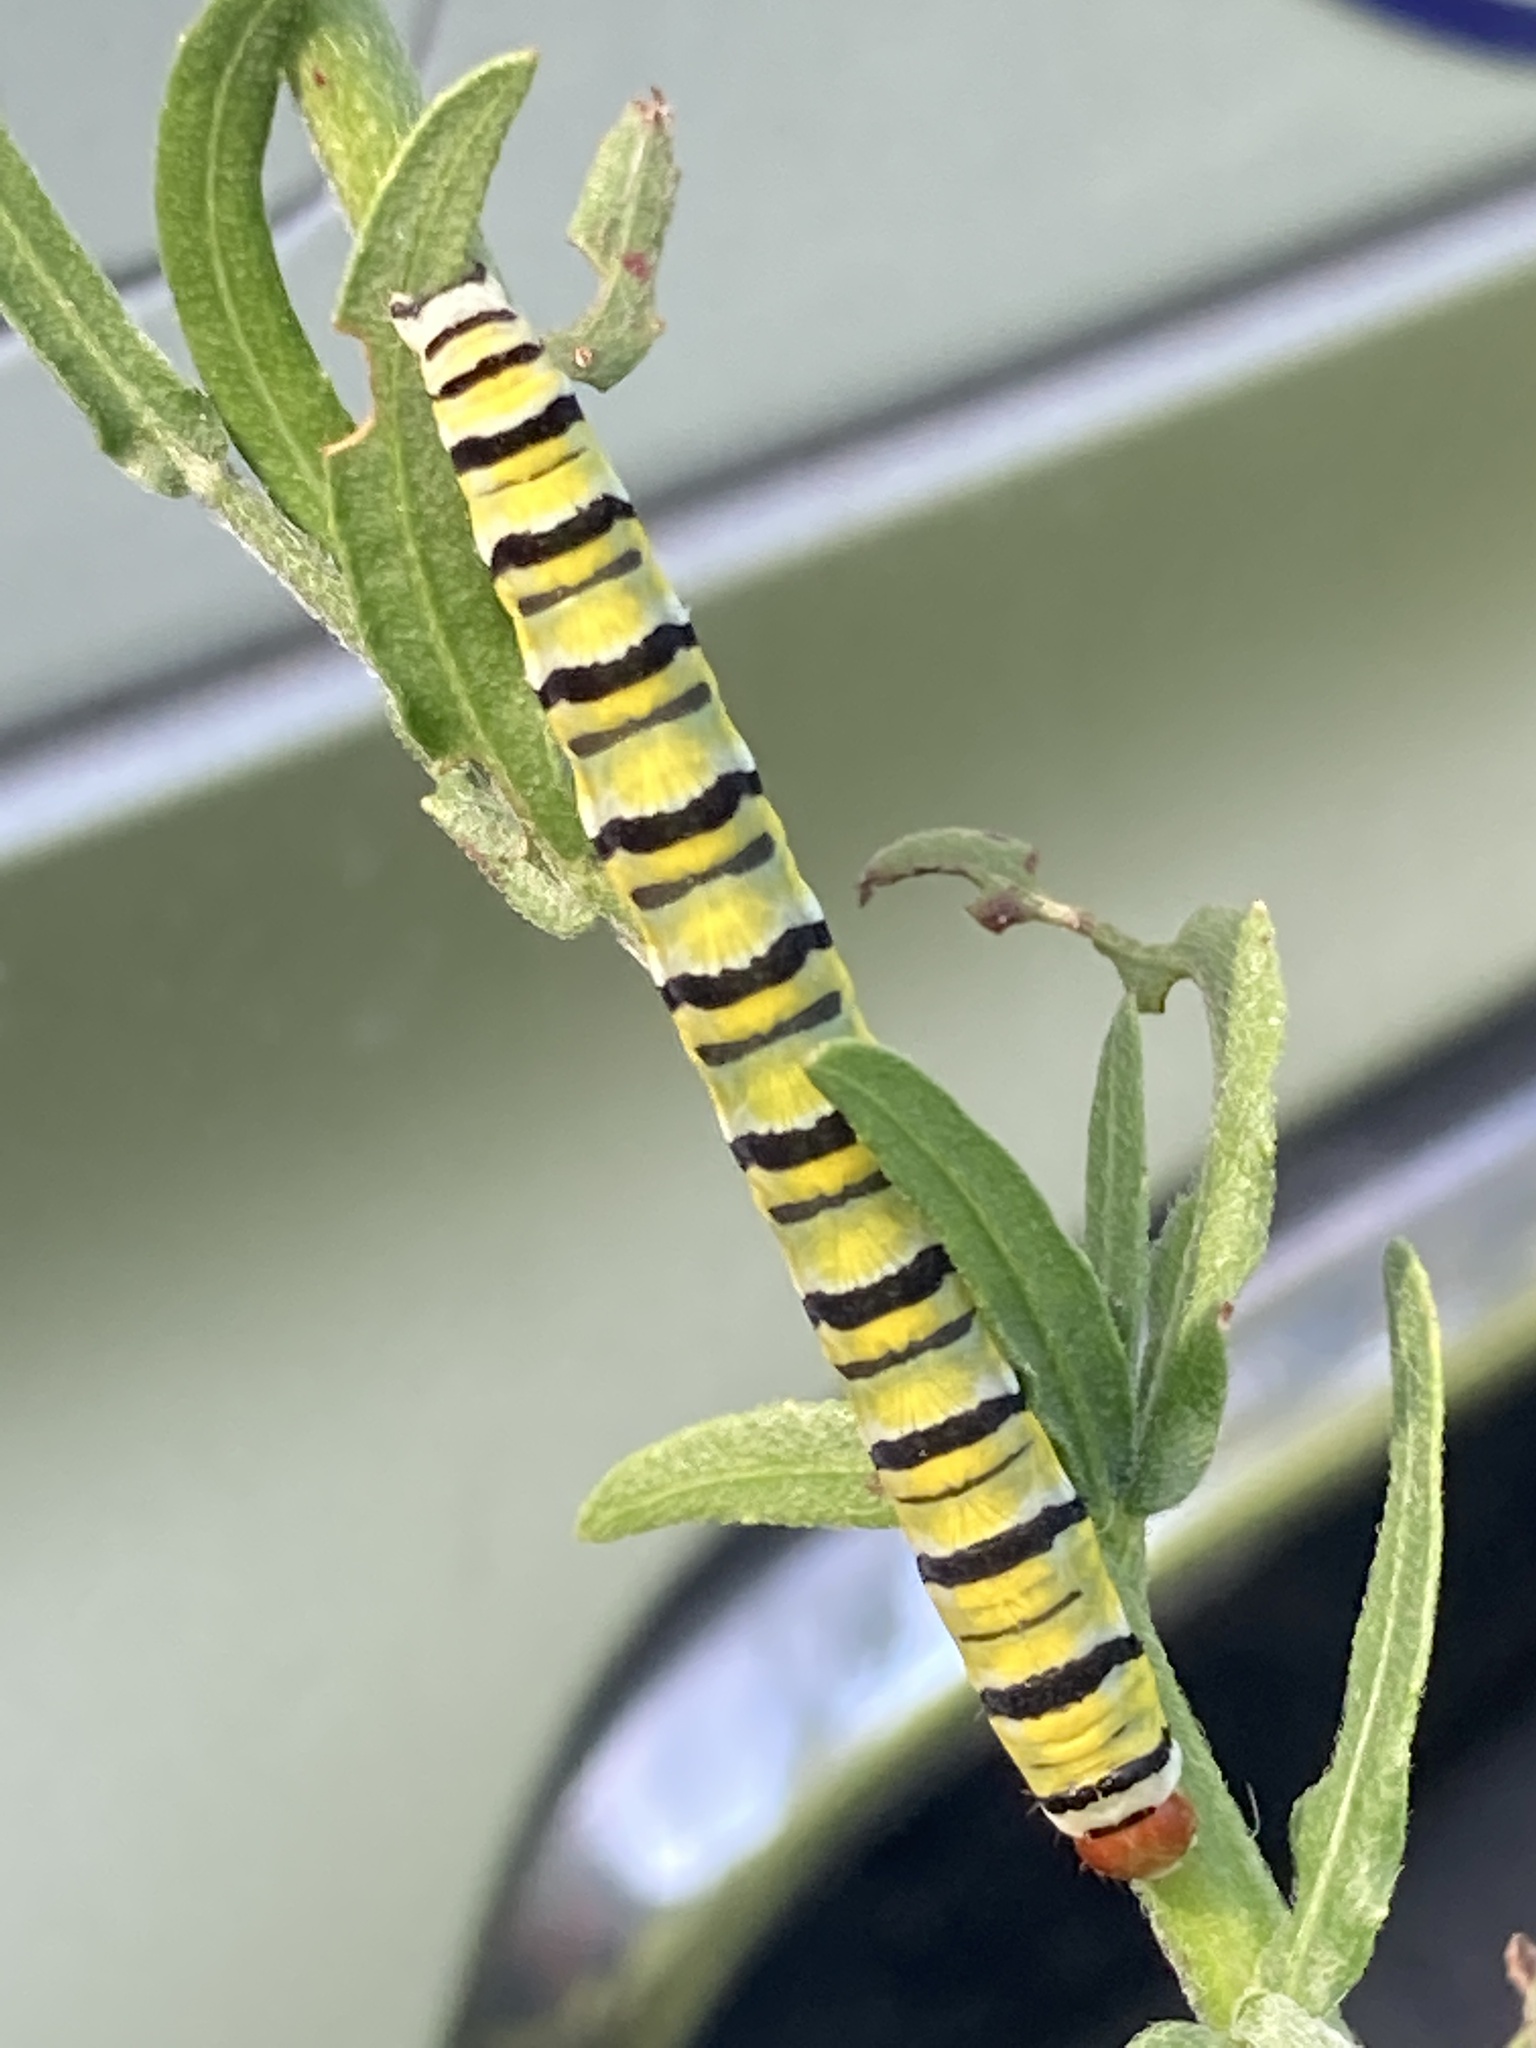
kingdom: Animalia
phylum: Arthropoda
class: Insecta
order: Lepidoptera
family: Noctuidae
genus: Schinia
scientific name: Schinia gaurae
